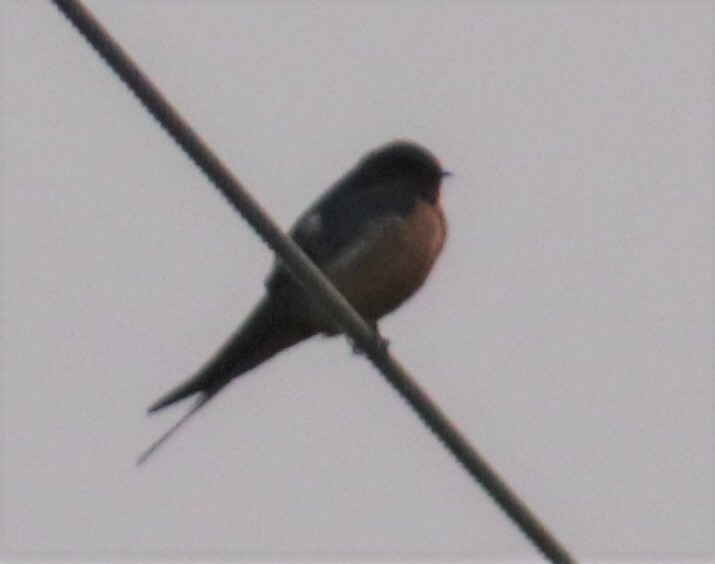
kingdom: Animalia
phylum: Chordata
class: Aves
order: Passeriformes
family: Hirundinidae
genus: Hirundo
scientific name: Hirundo rustica
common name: Barn swallow
